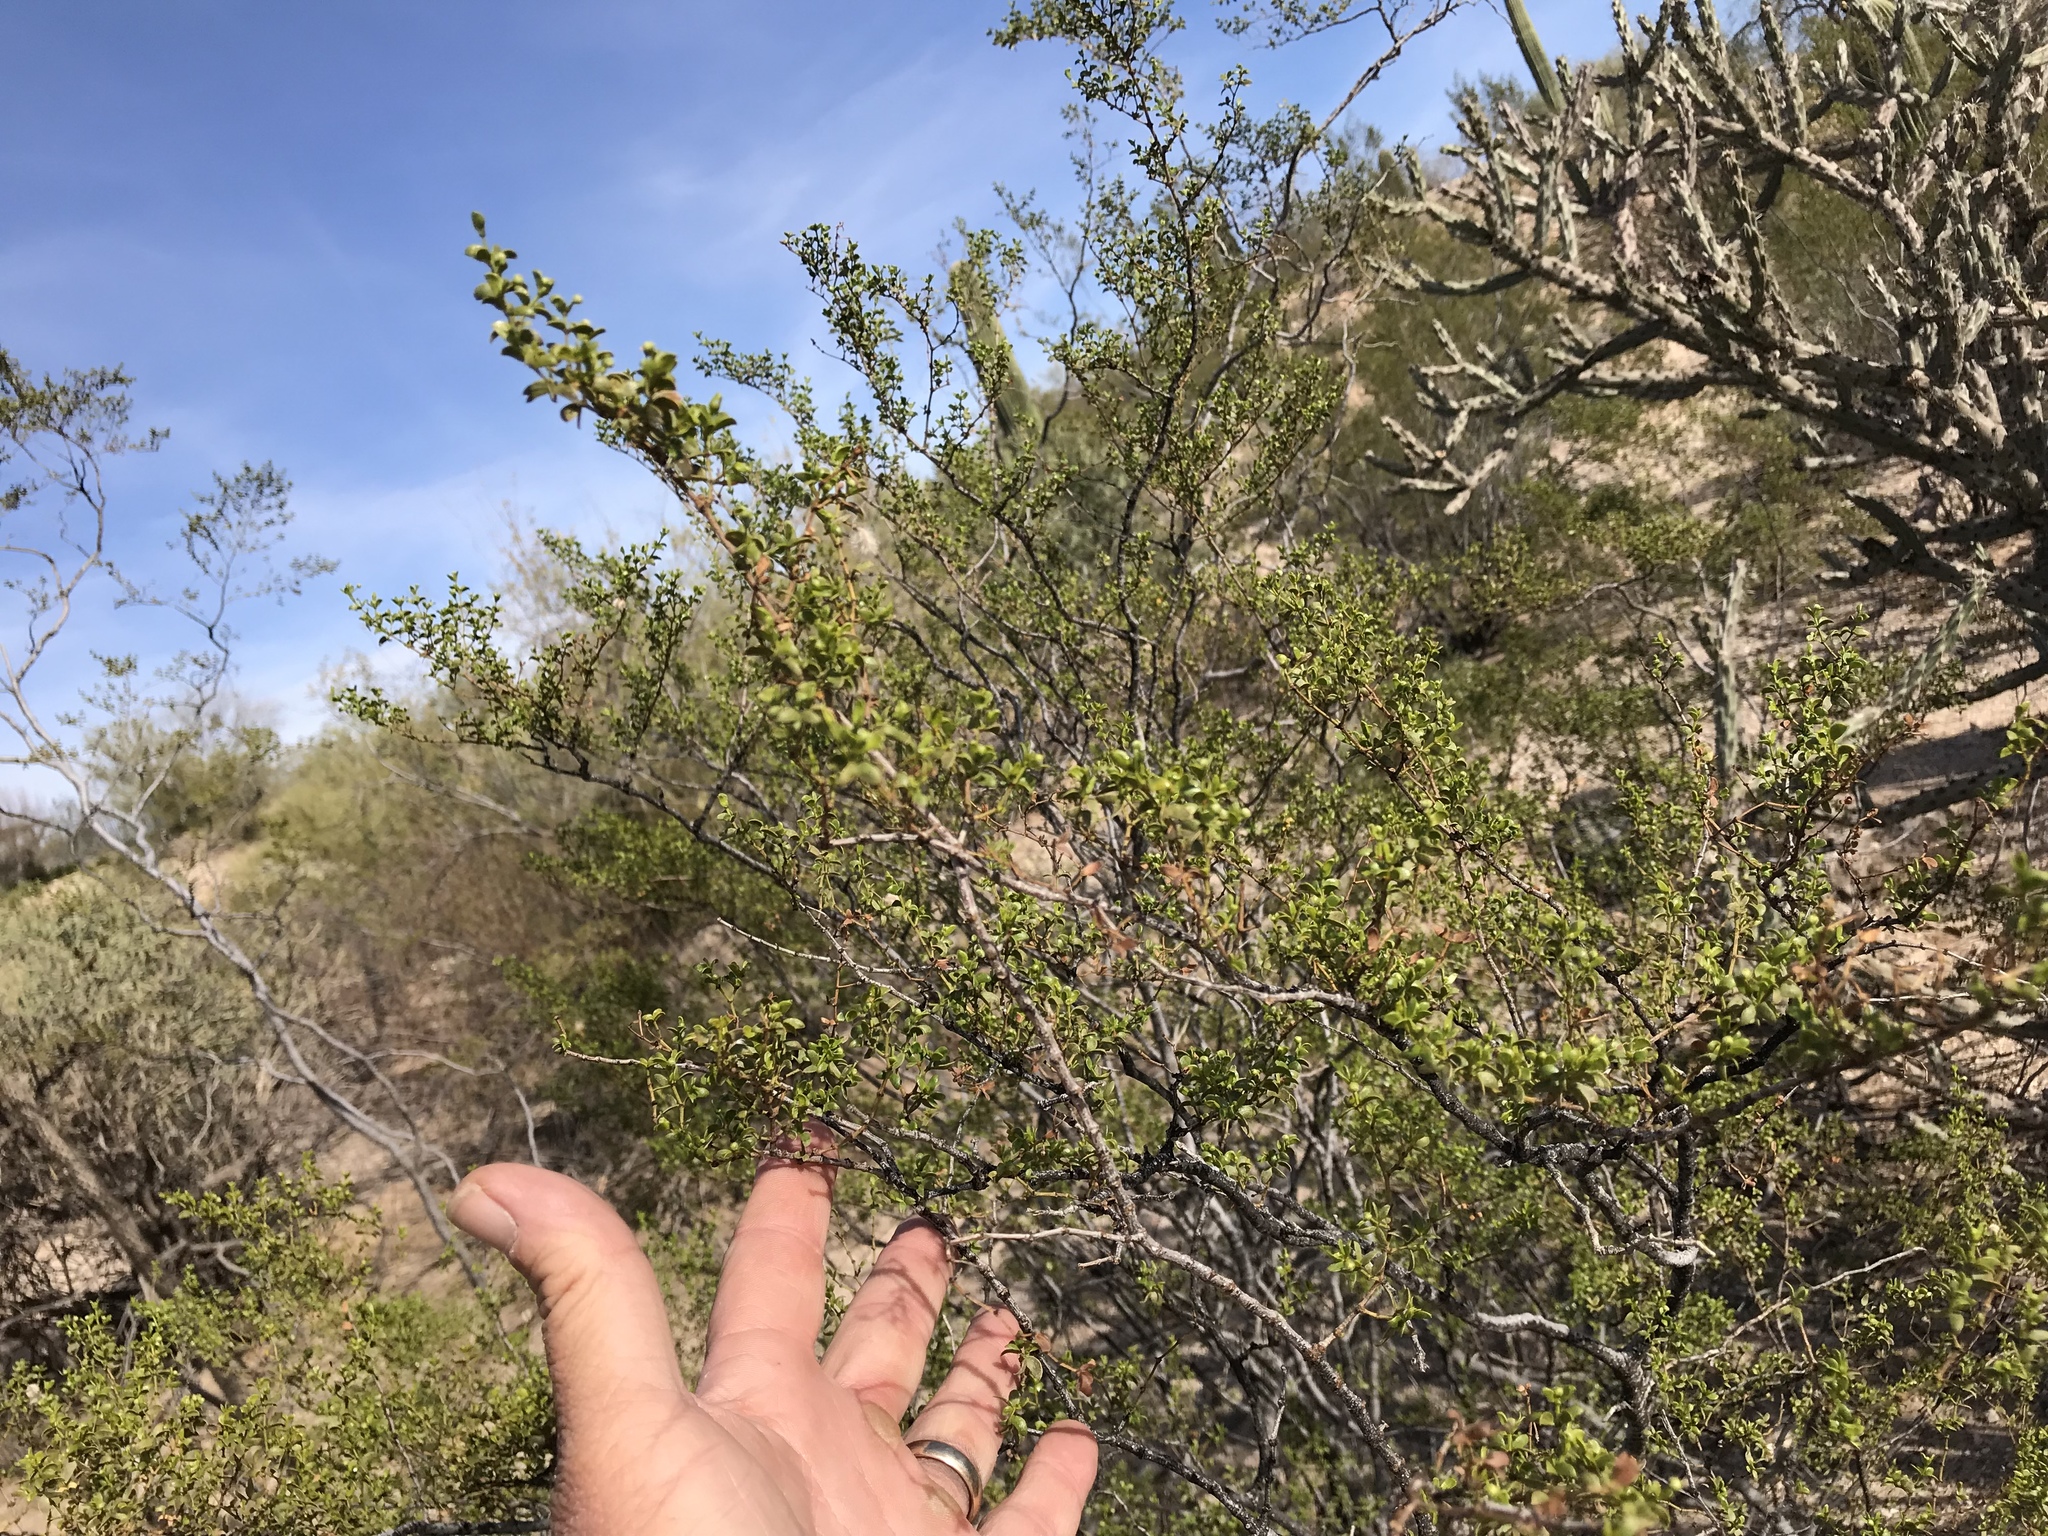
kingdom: Plantae
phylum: Tracheophyta
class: Magnoliopsida
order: Zygophyllales
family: Zygophyllaceae
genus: Larrea
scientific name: Larrea tridentata
